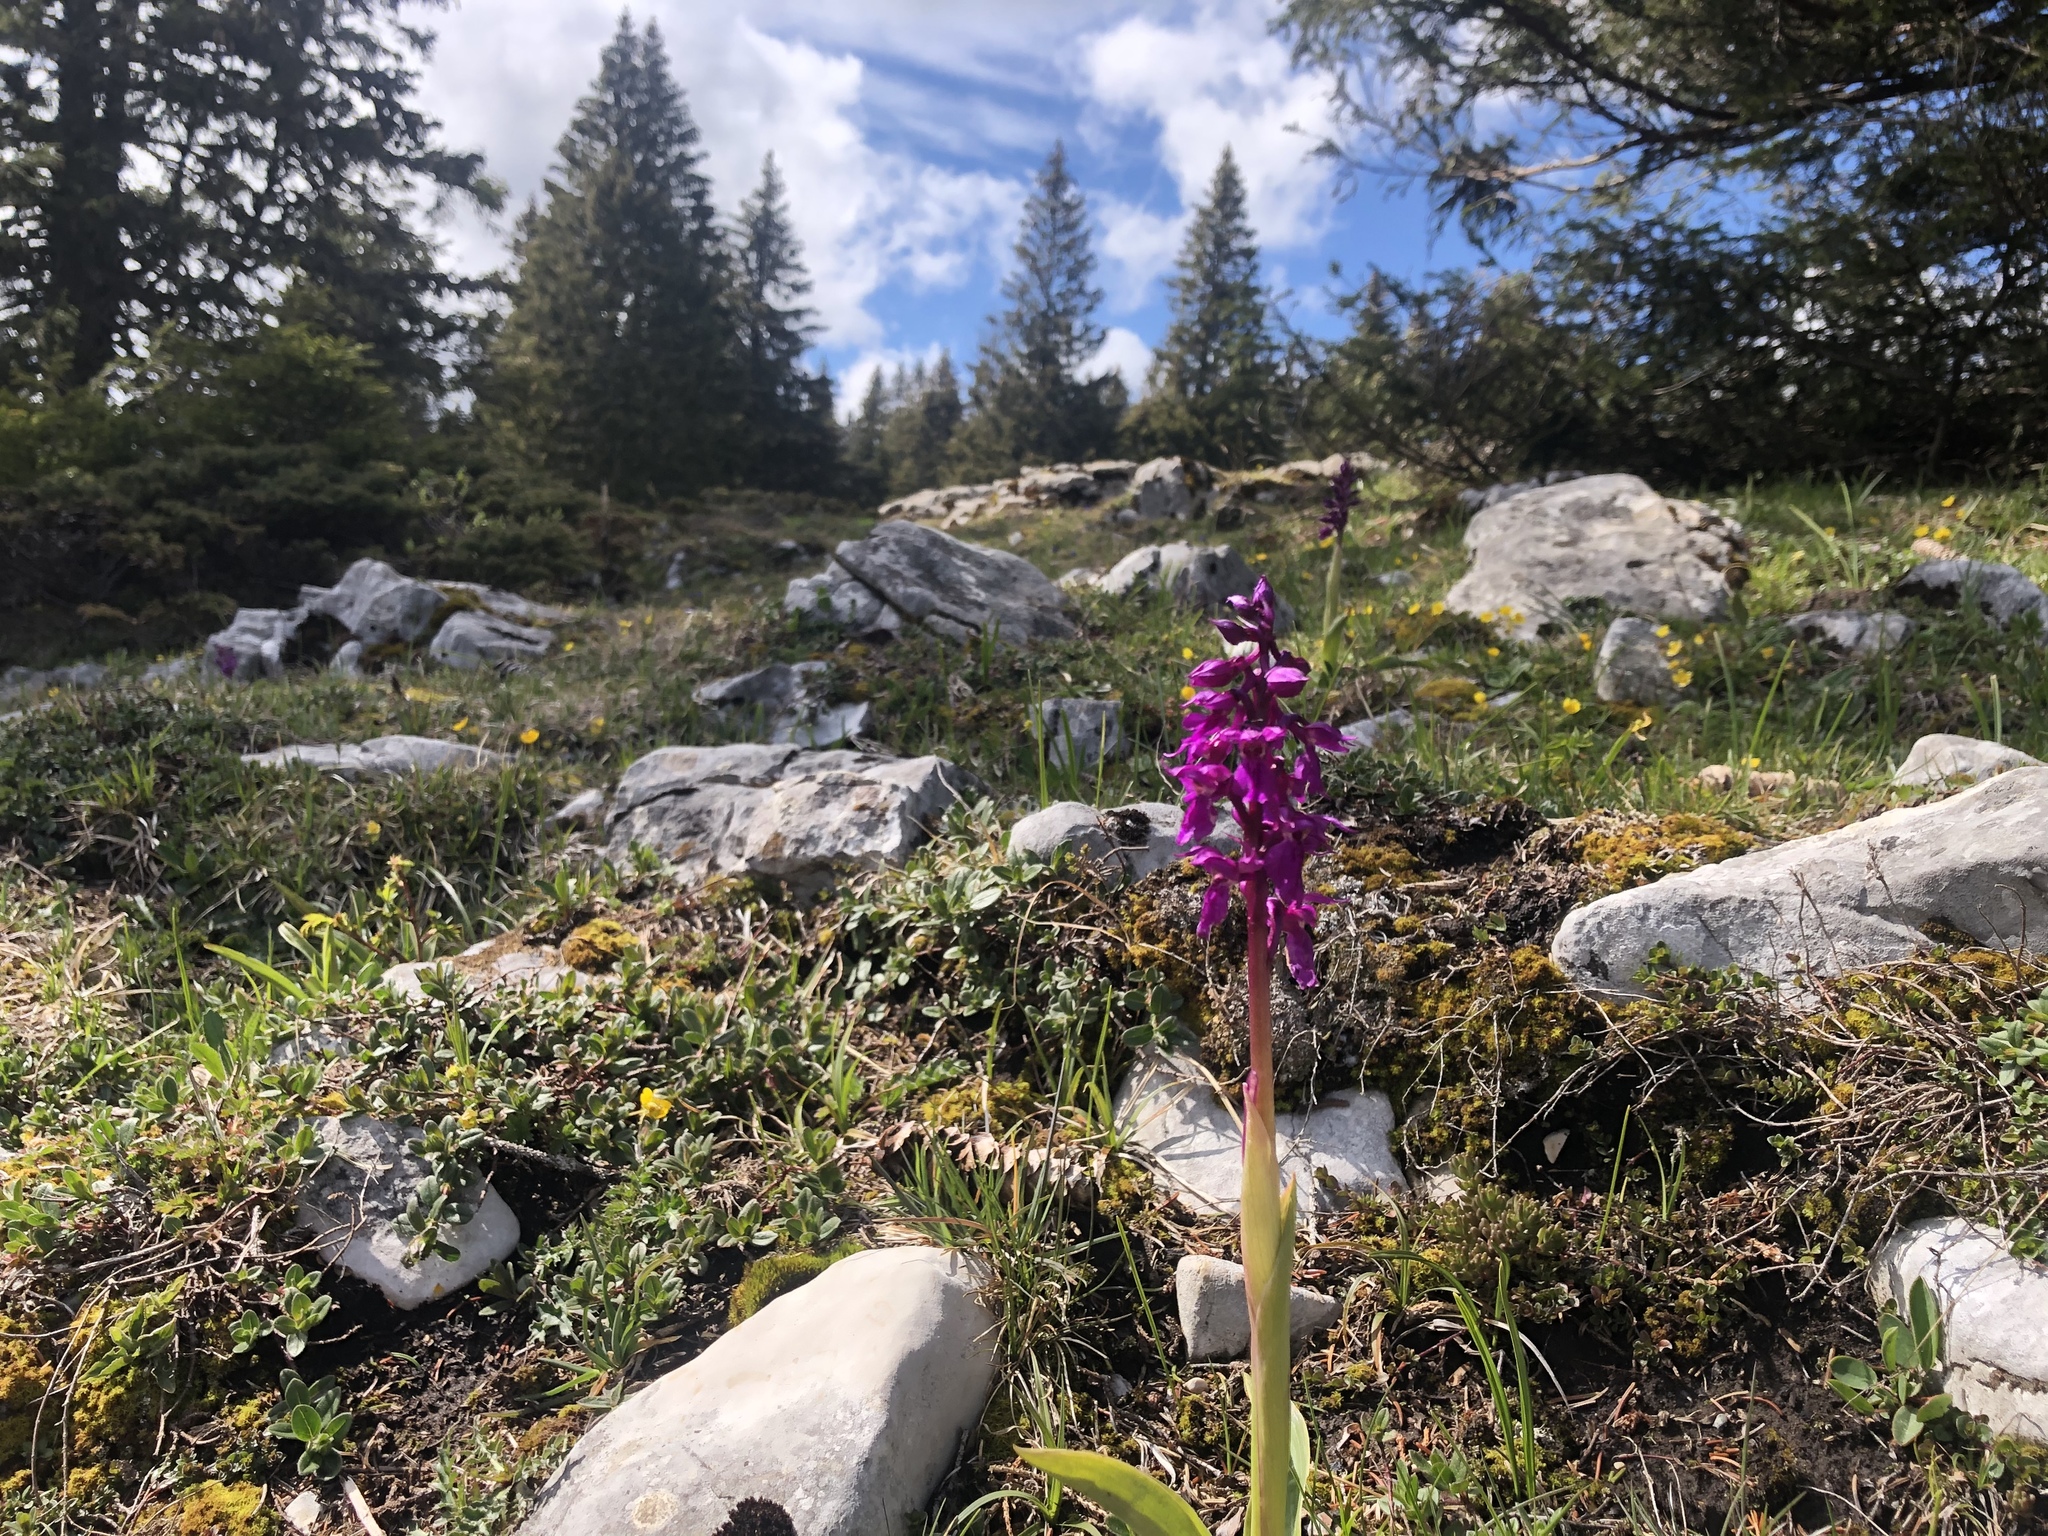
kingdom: Plantae
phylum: Tracheophyta
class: Liliopsida
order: Asparagales
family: Orchidaceae
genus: Orchis
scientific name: Orchis mascula
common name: Early-purple orchid
